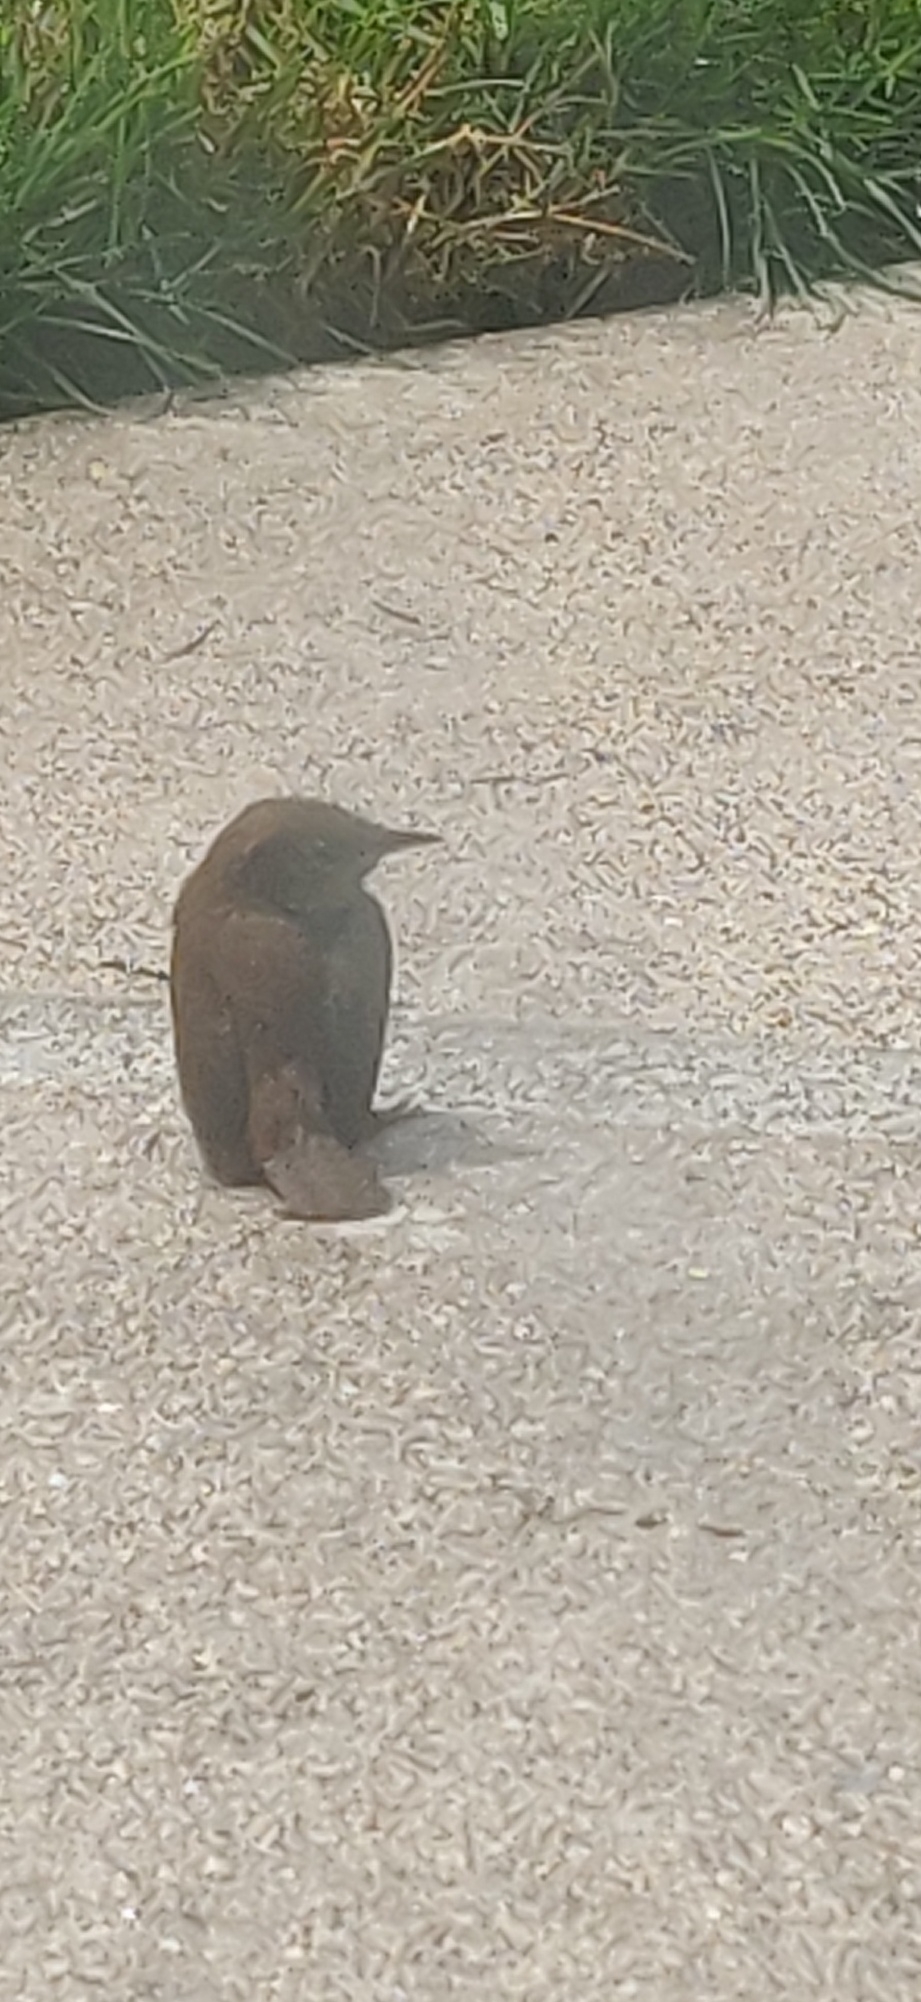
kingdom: Animalia
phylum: Chordata
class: Aves
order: Passeriformes
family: Troglodytidae
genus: Troglodytes
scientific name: Troglodytes aedon
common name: House wren
